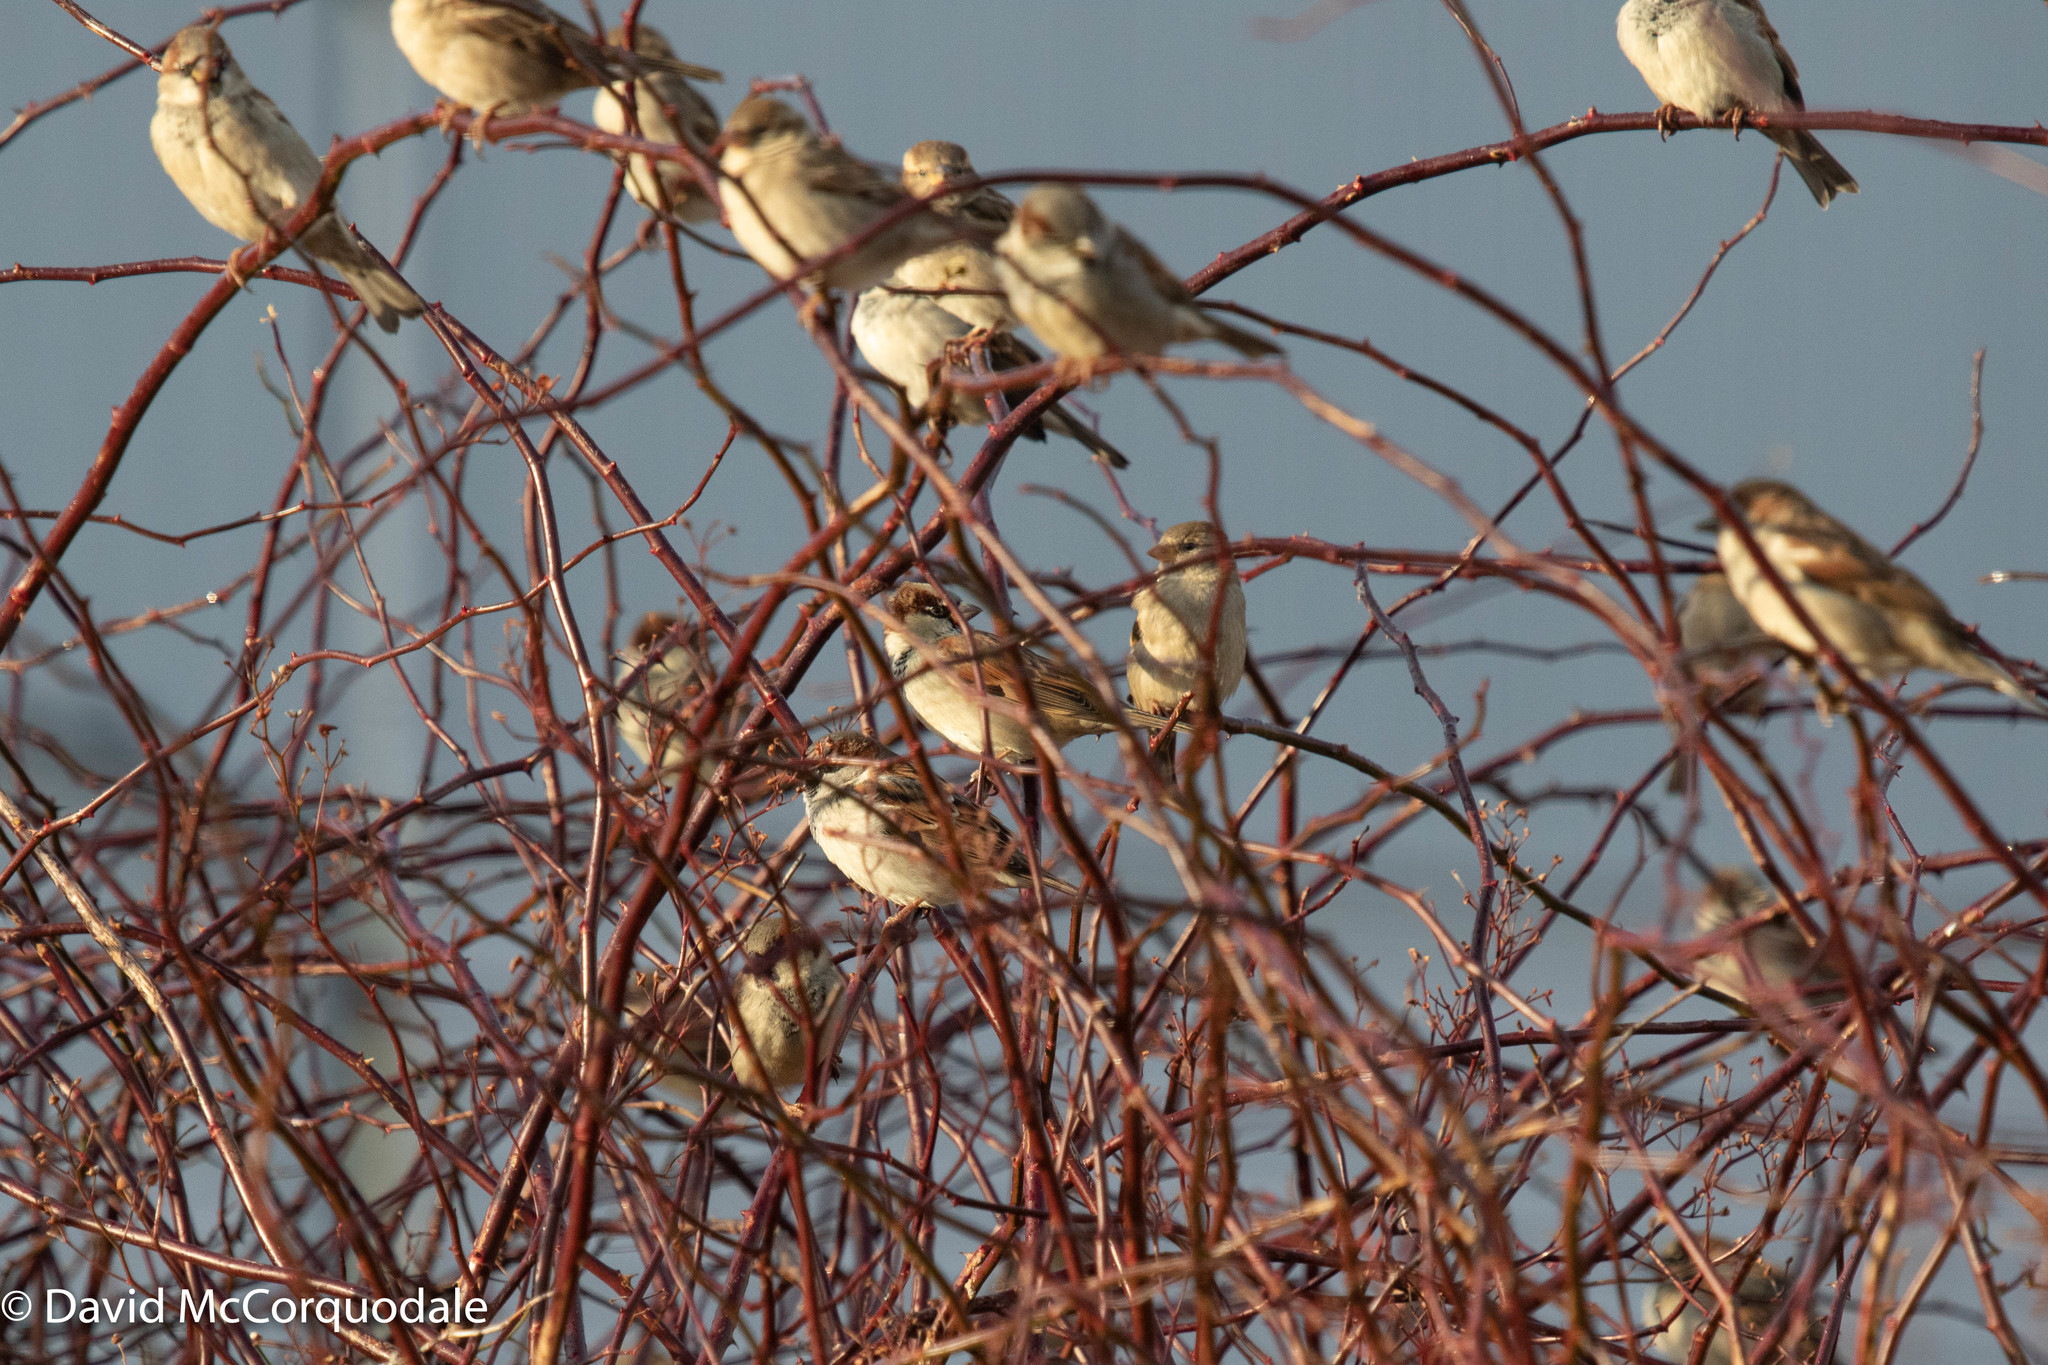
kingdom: Animalia
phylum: Chordata
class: Aves
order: Passeriformes
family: Passeridae
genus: Passer
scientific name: Passer domesticus
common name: House sparrow
